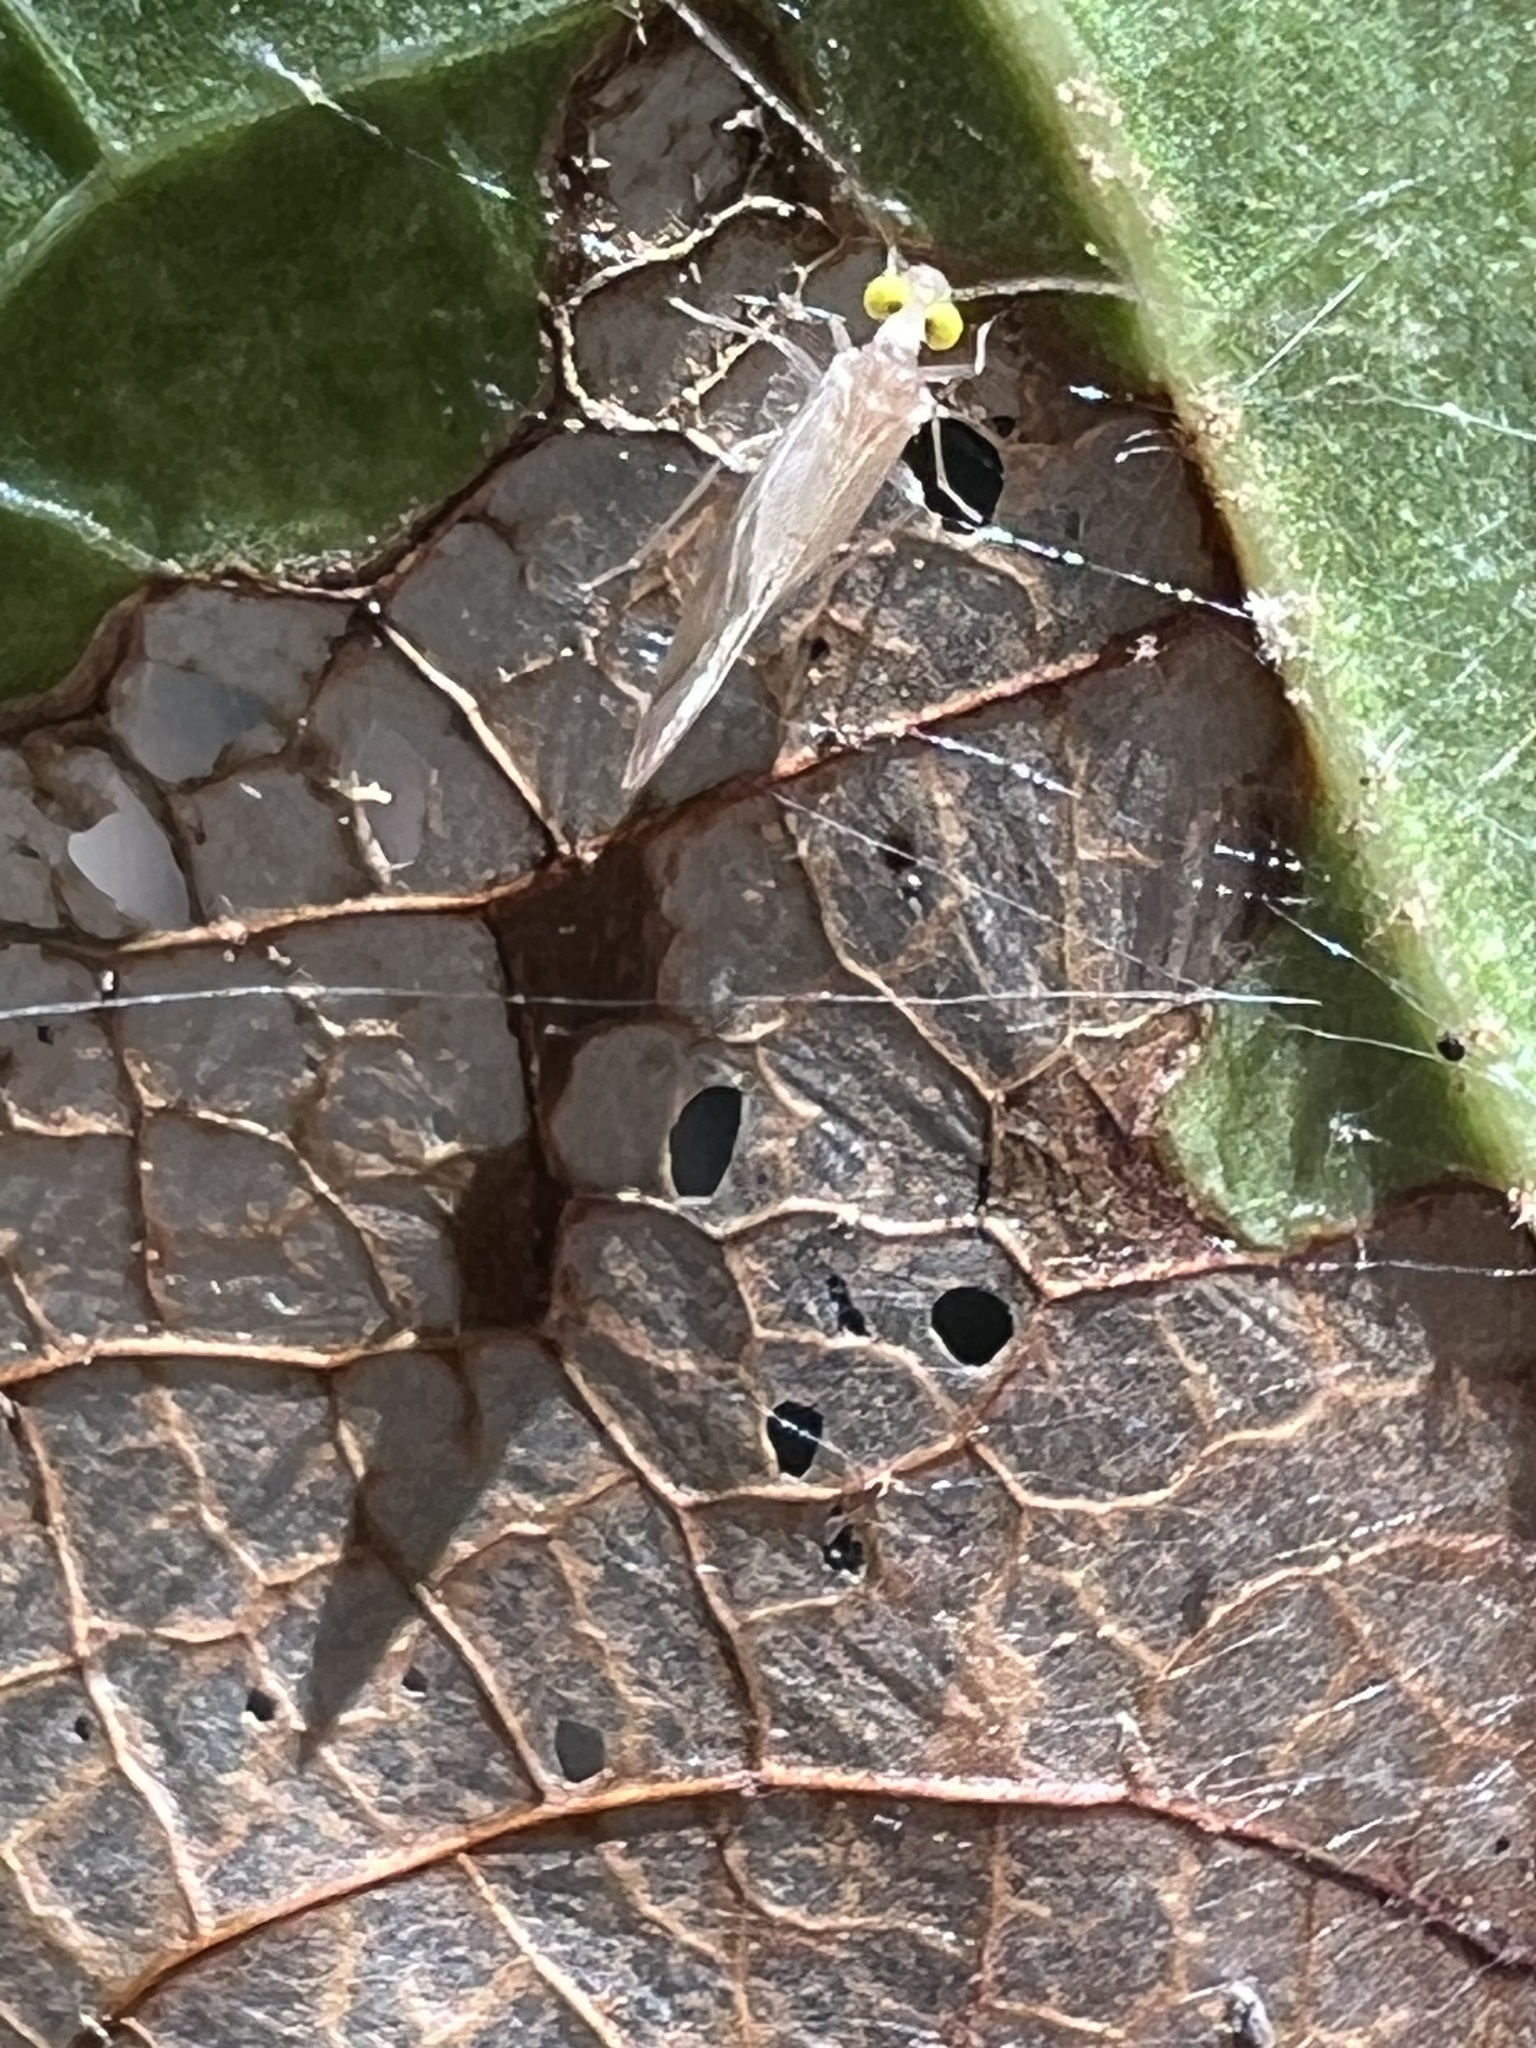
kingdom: Animalia
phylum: Arthropoda
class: Insecta
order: Psocodea
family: Paracaeciliidae
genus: Xanthocaecilius
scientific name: Xanthocaecilius sommermanae
